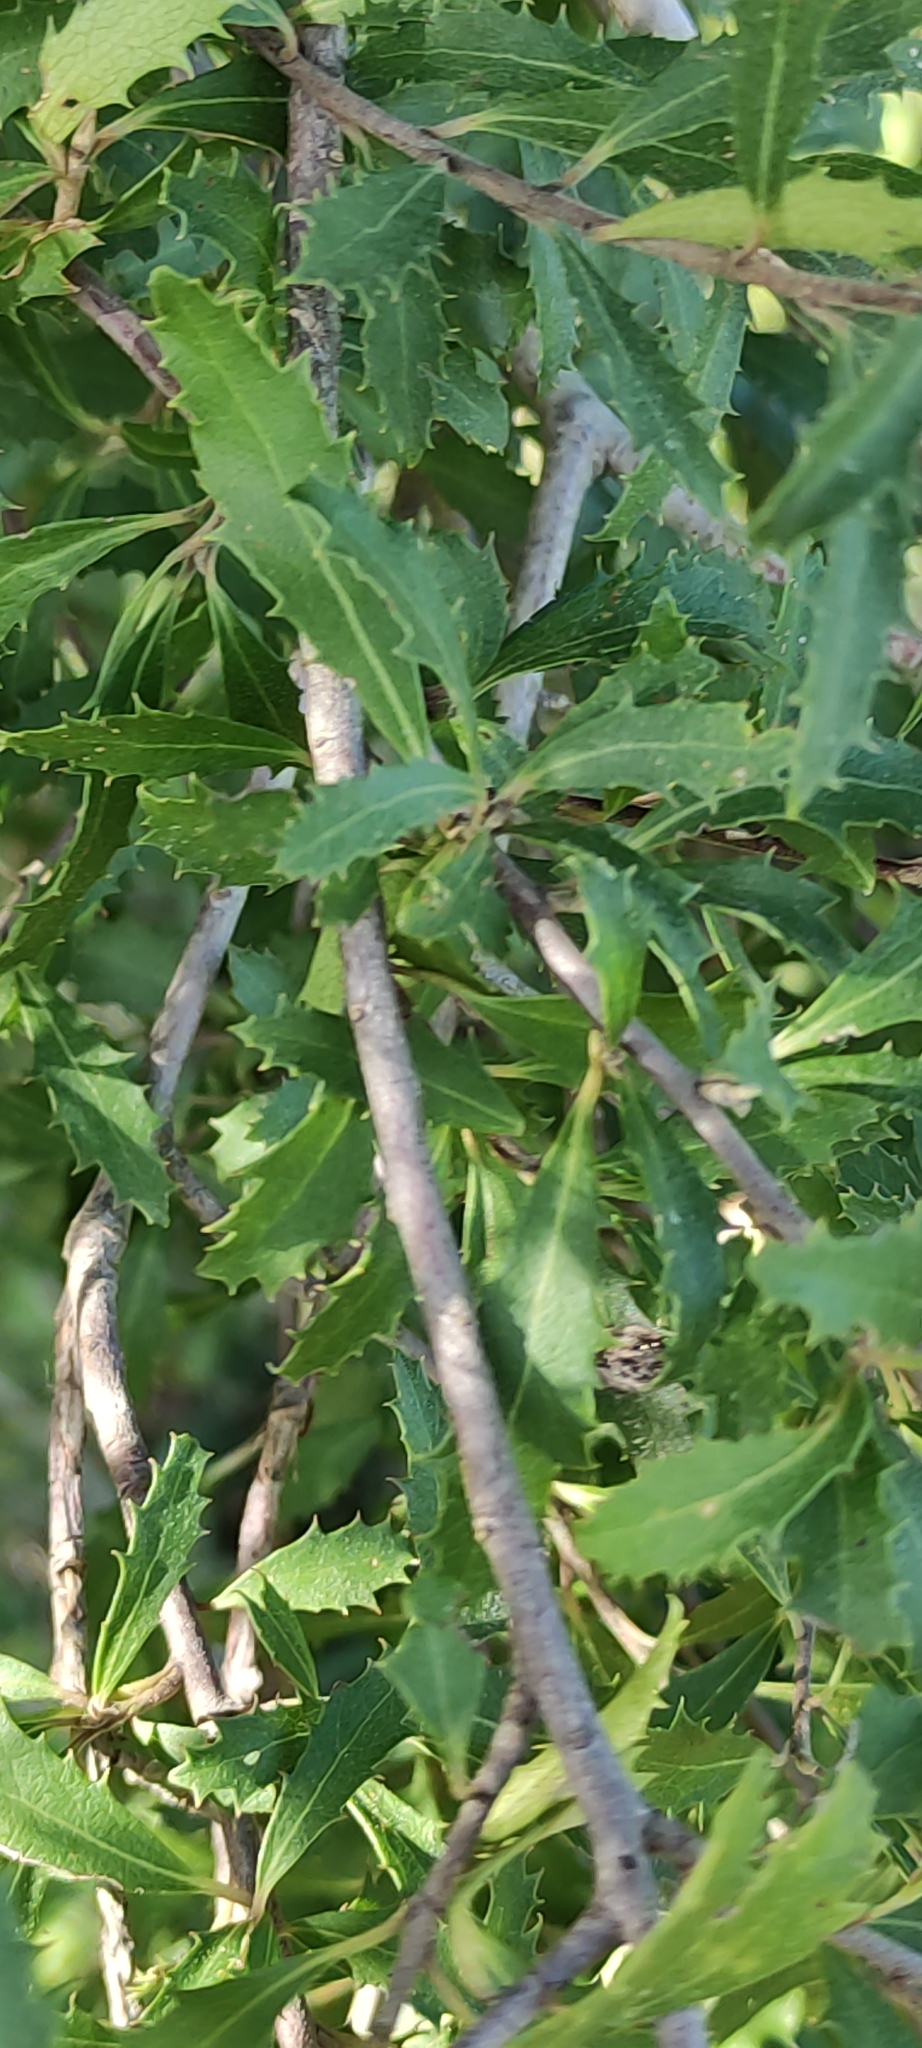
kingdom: Plantae
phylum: Tracheophyta
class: Magnoliopsida
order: Malvales
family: Malvaceae
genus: Hoheria
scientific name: Hoheria angustifolia
